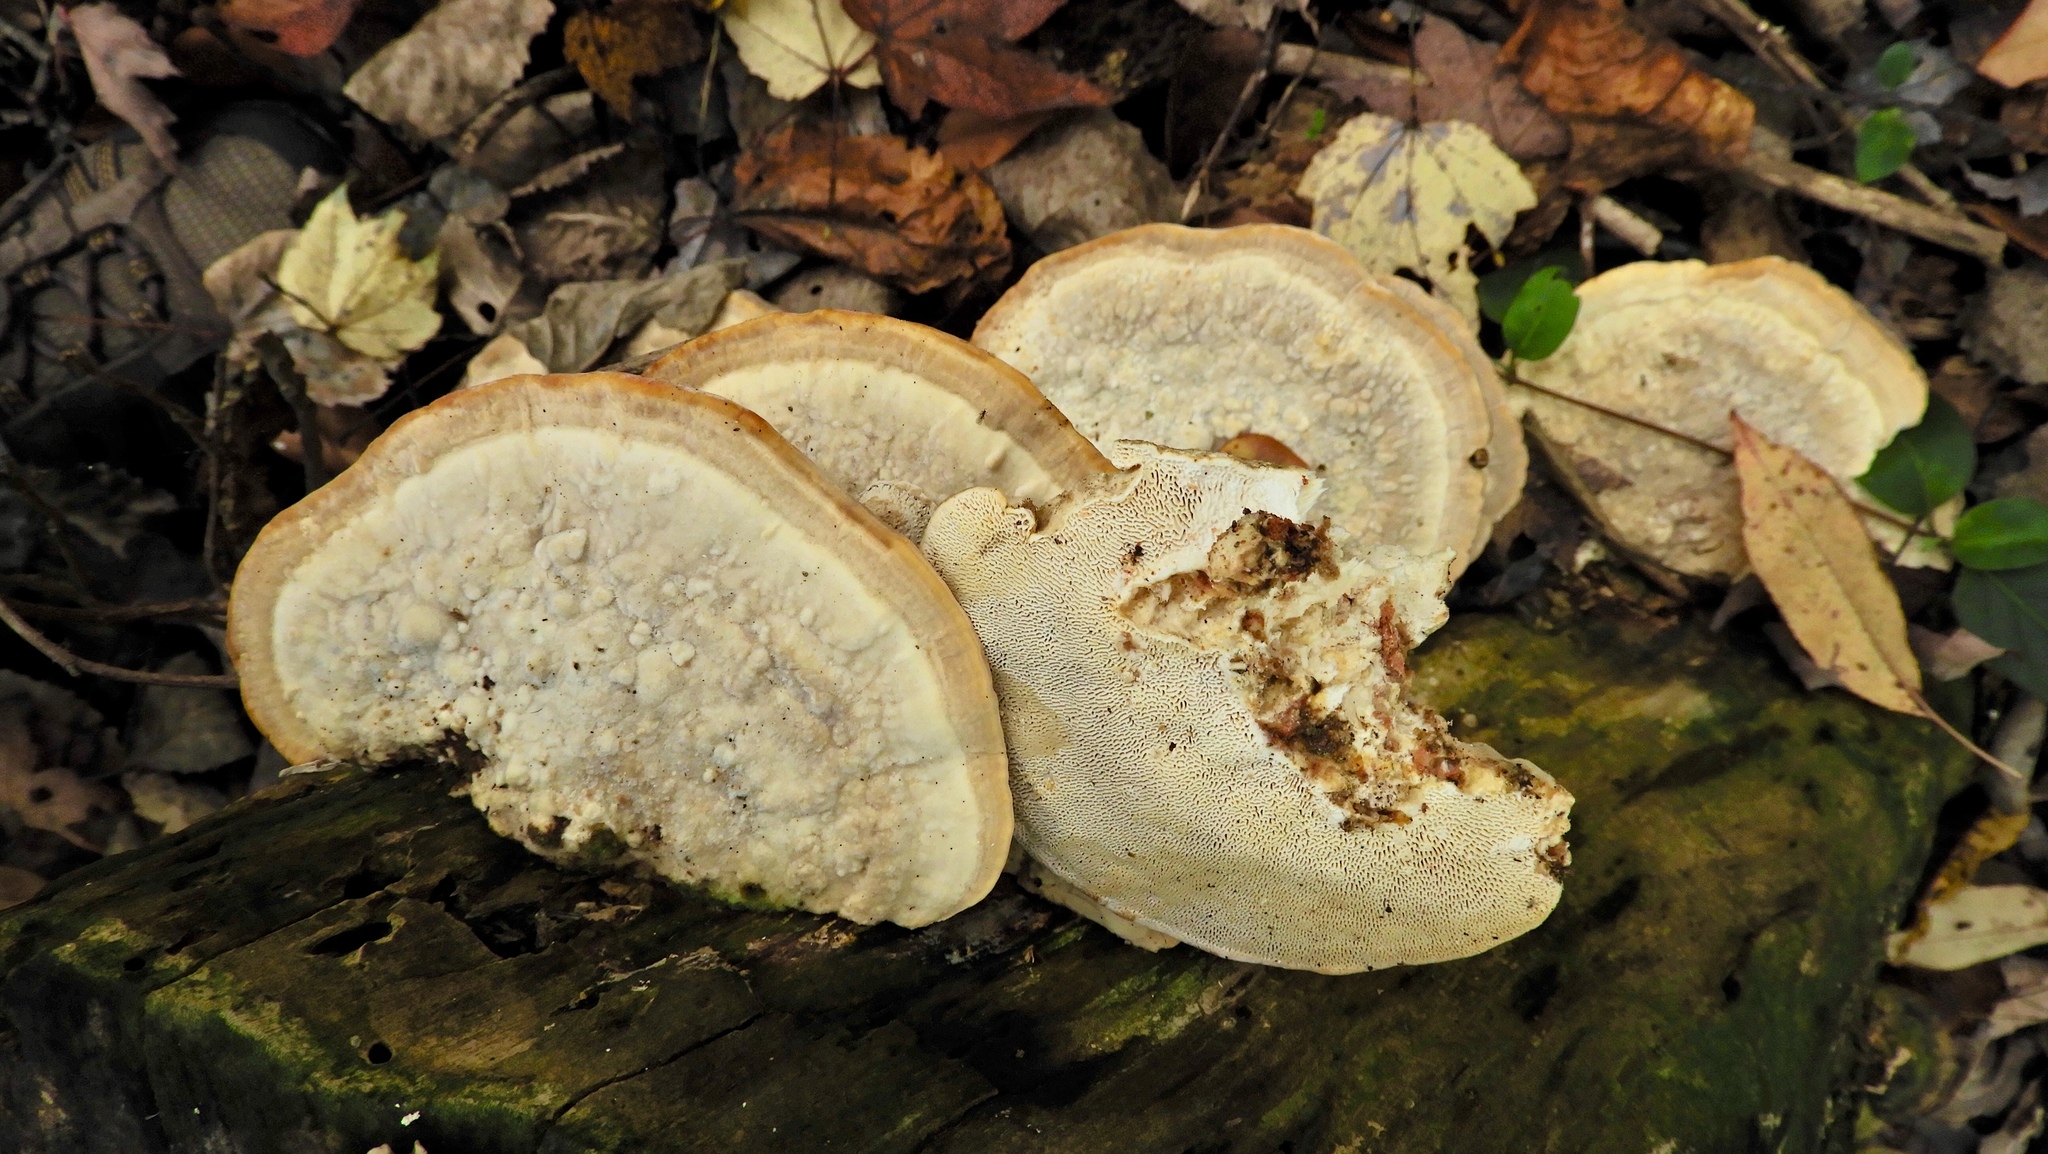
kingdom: Fungi
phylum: Basidiomycota
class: Agaricomycetes
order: Polyporales
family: Polyporaceae
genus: Trametes
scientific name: Trametes gibbosa
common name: Lumpy bracket
